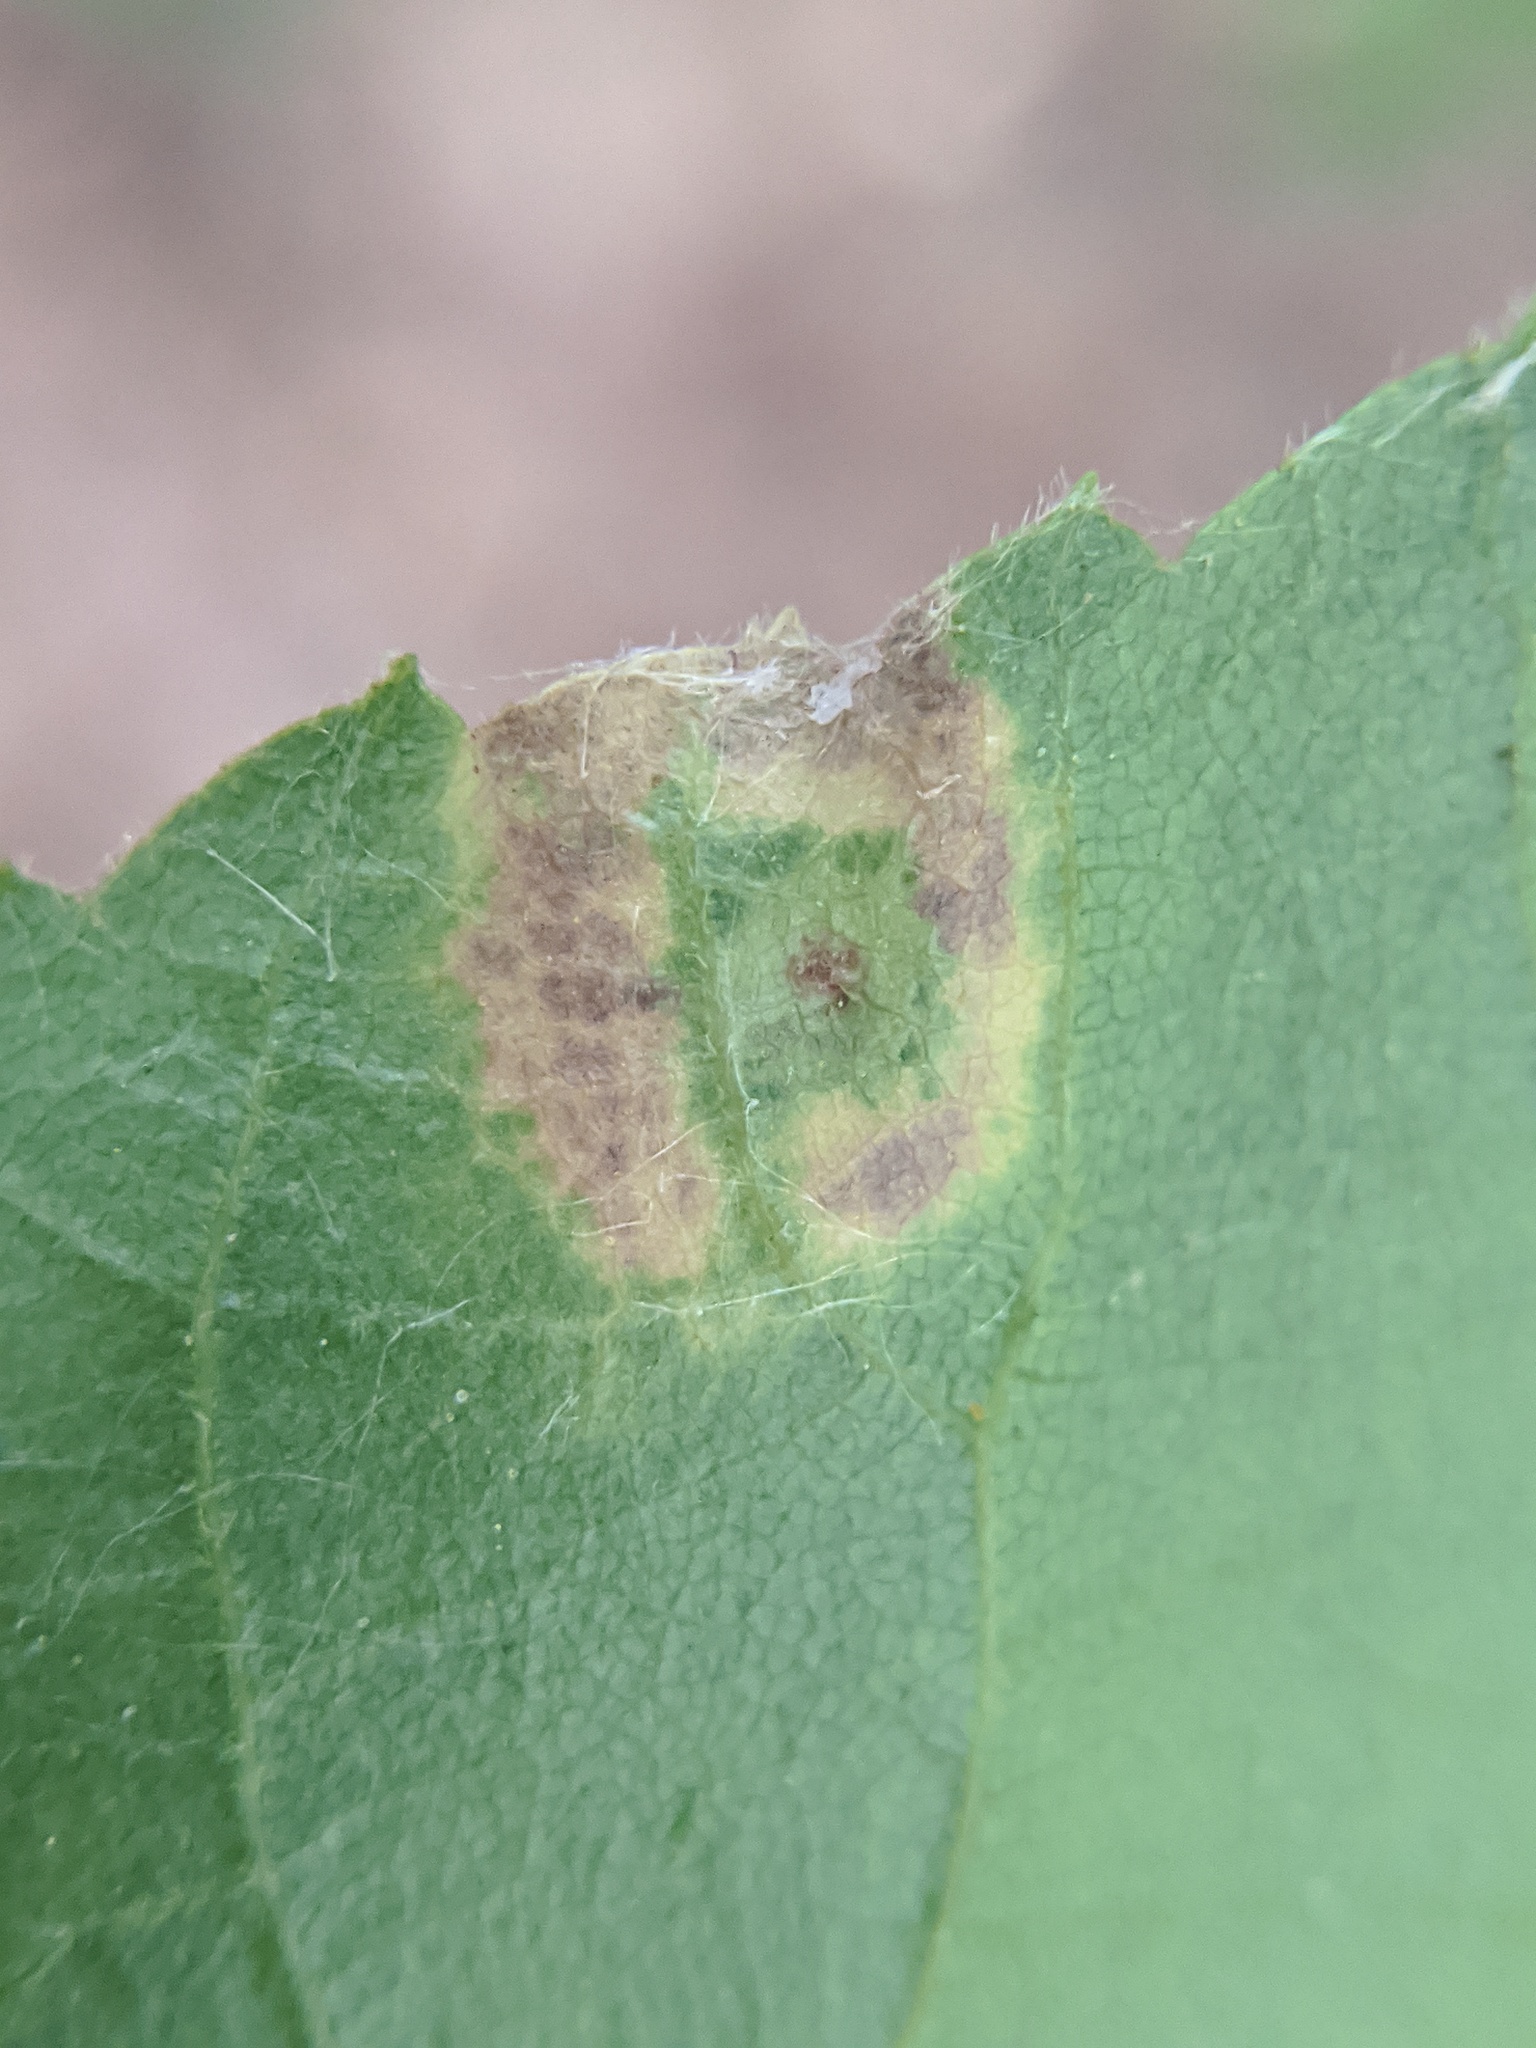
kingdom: Animalia
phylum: Arthropoda
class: Insecta
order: Diptera
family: Cecidomyiidae
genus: Caryomyia
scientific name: Caryomyia viscidolium
